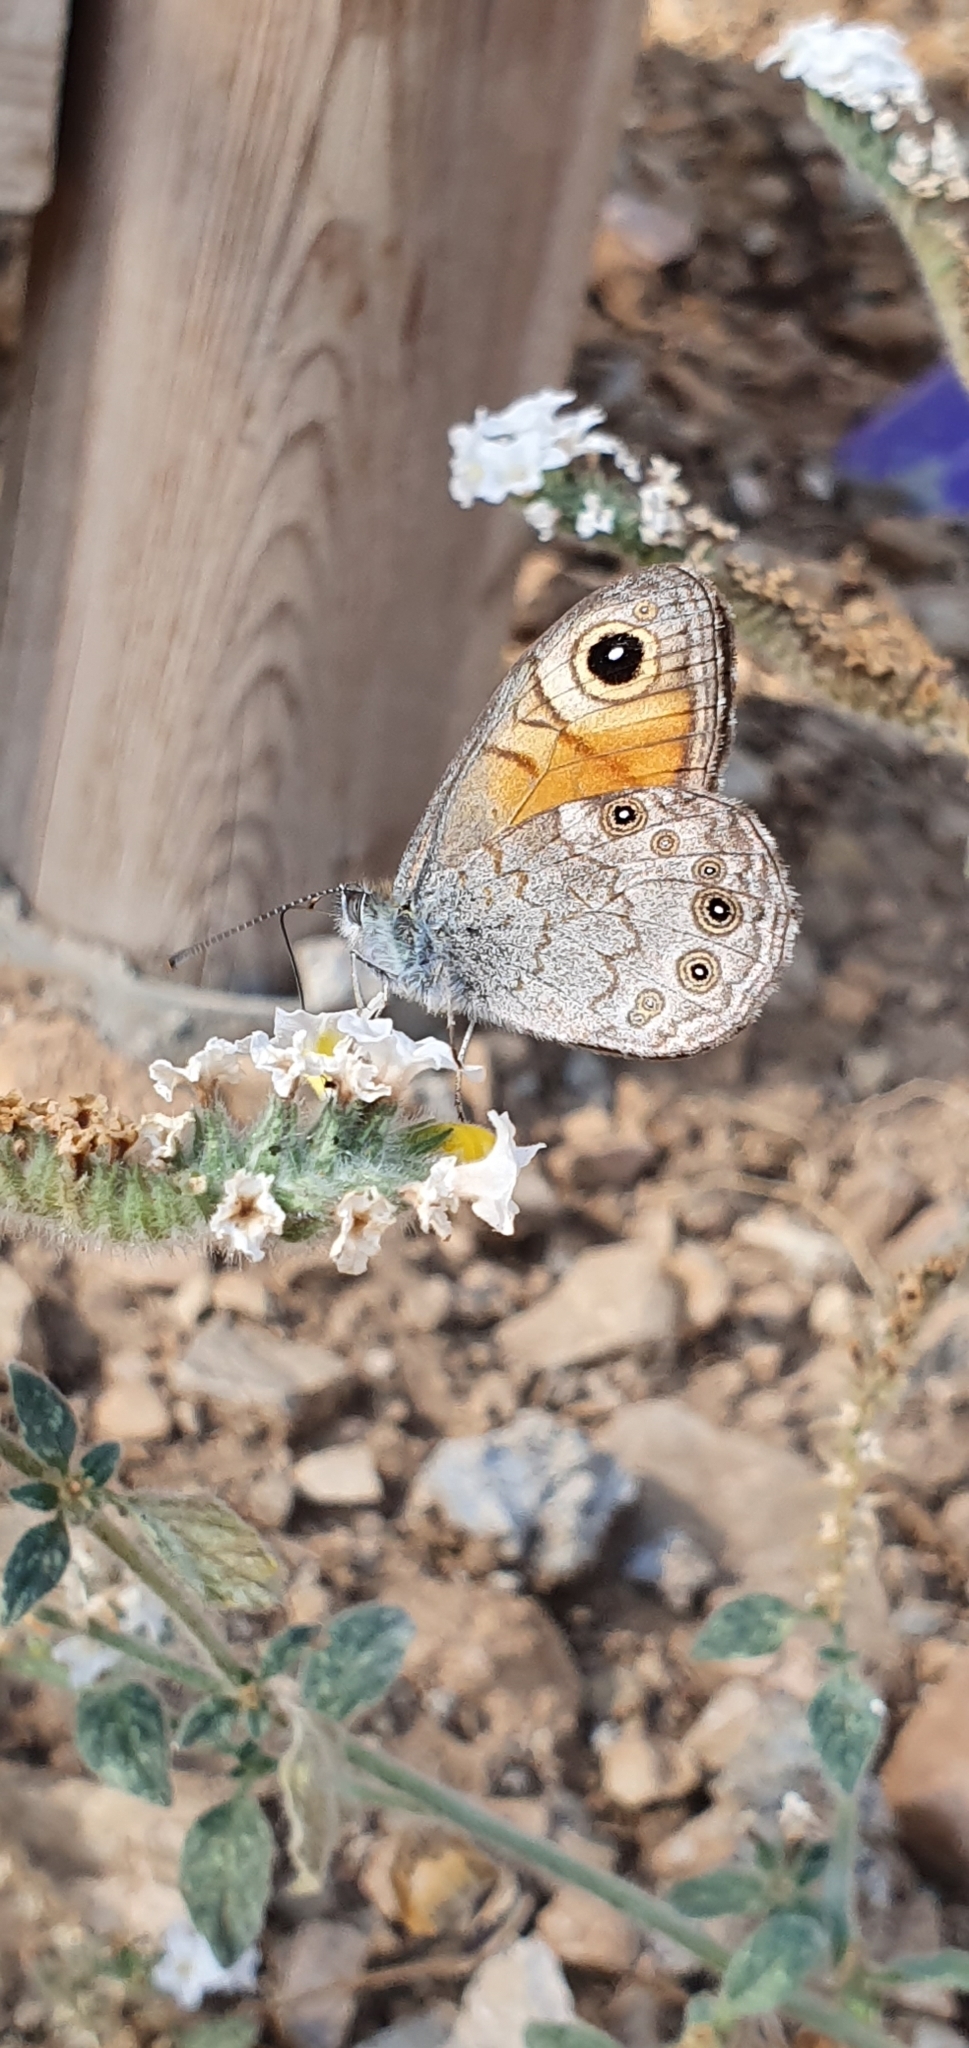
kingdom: Animalia
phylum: Arthropoda
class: Insecta
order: Lepidoptera
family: Nymphalidae
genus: Pararge
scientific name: Pararge Lasiommata maera
